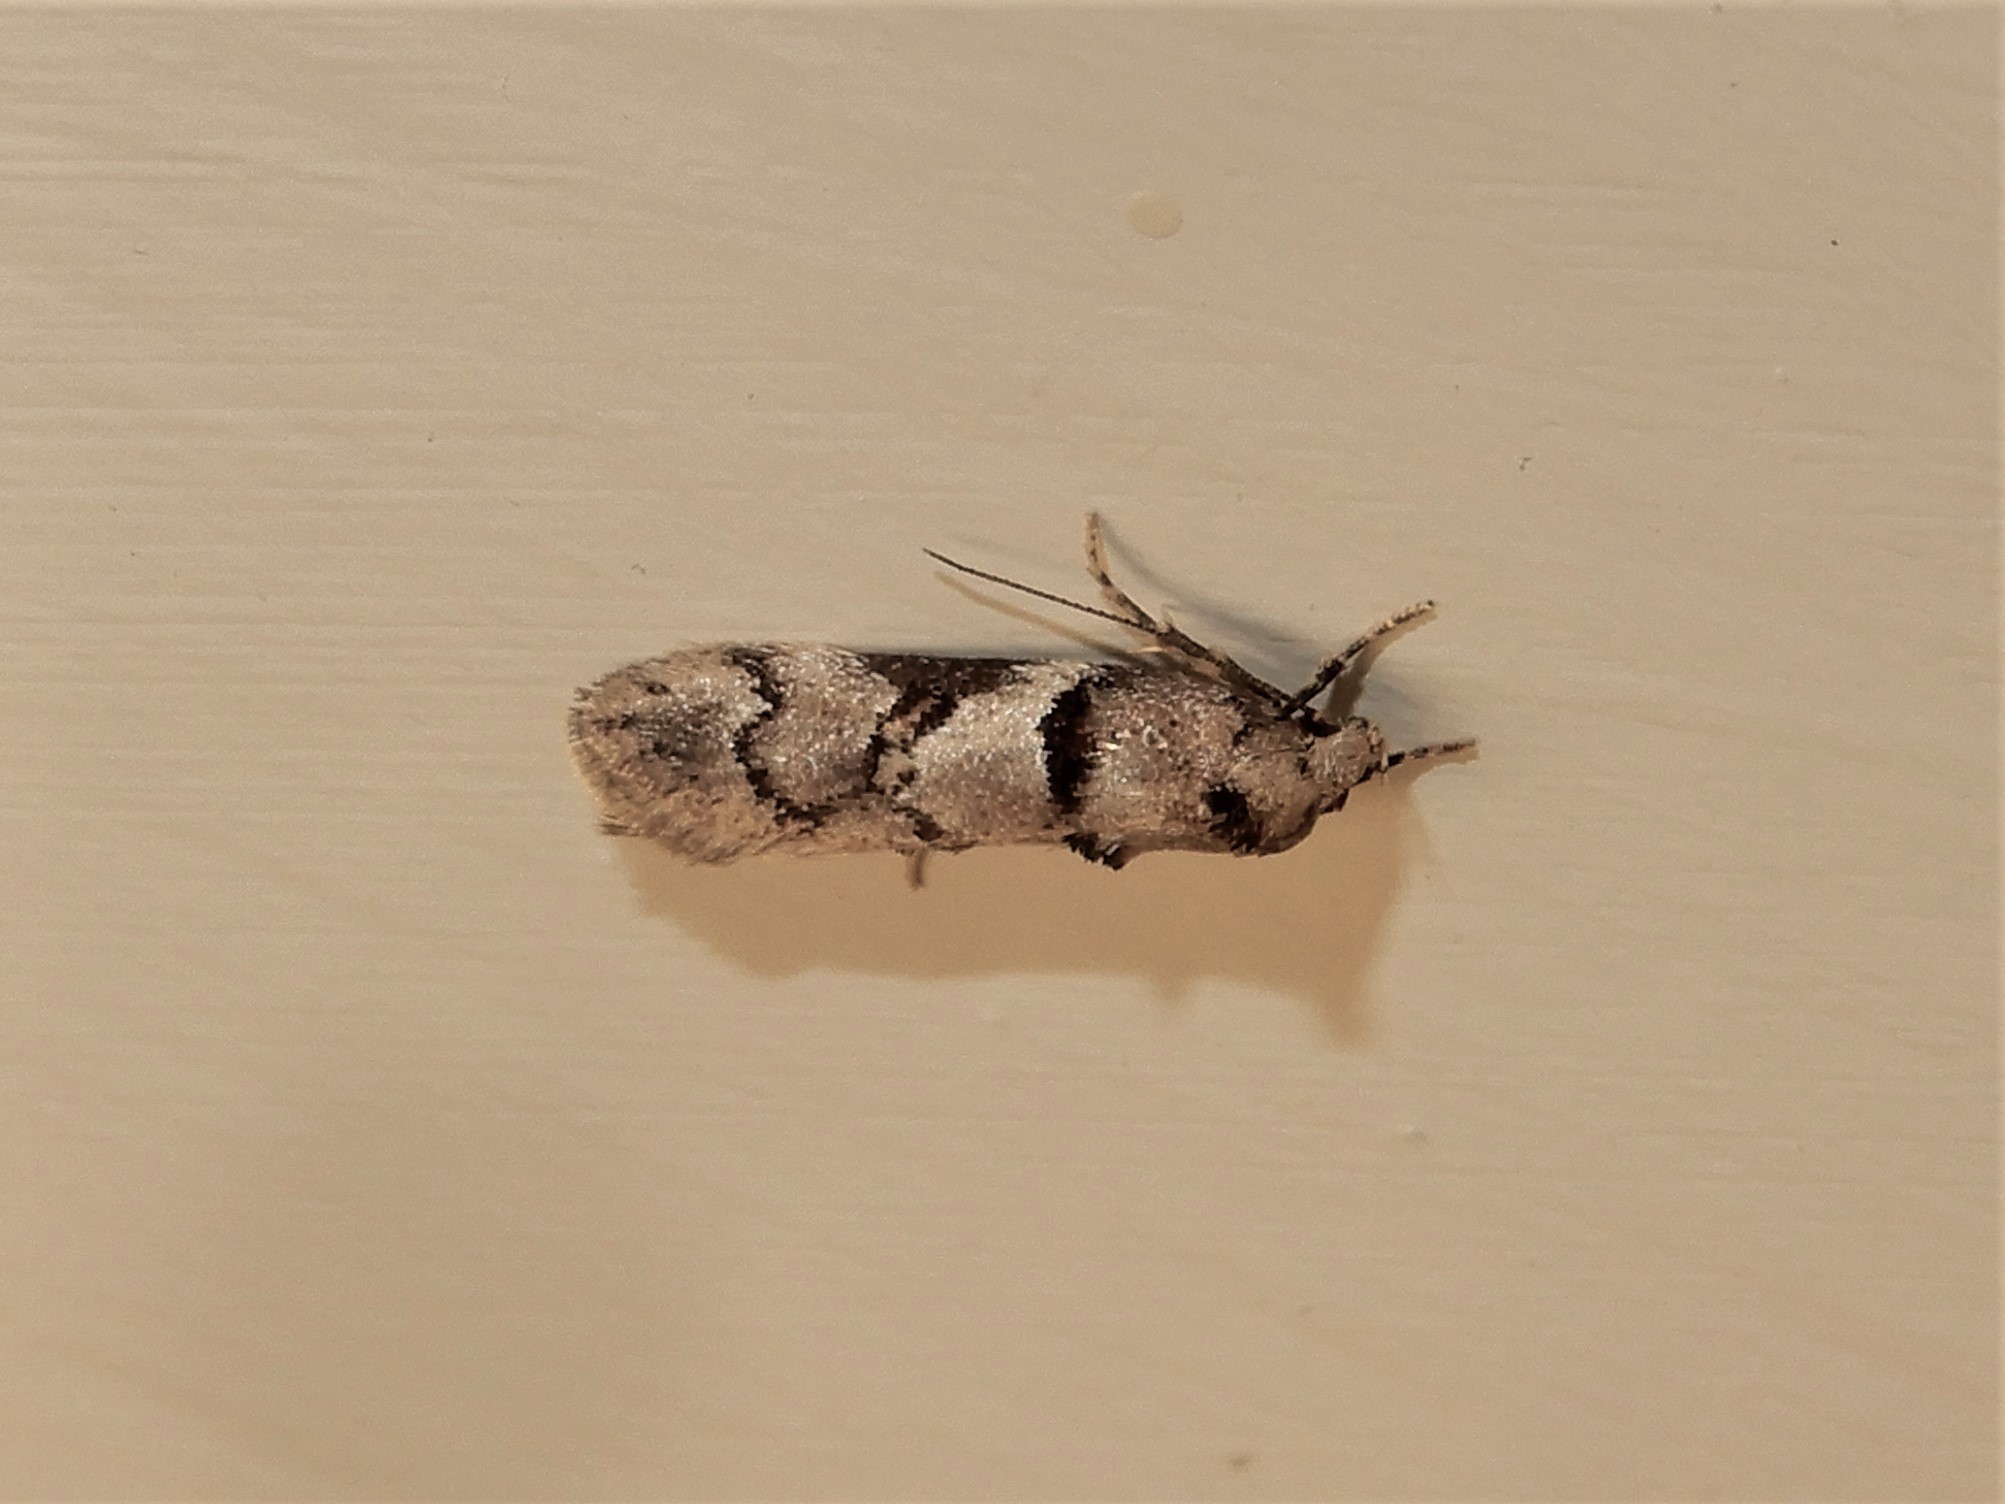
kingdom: Animalia
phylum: Arthropoda
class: Insecta
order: Lepidoptera
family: Oecophoridae
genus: Trachypepla
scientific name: Trachypepla contritella
